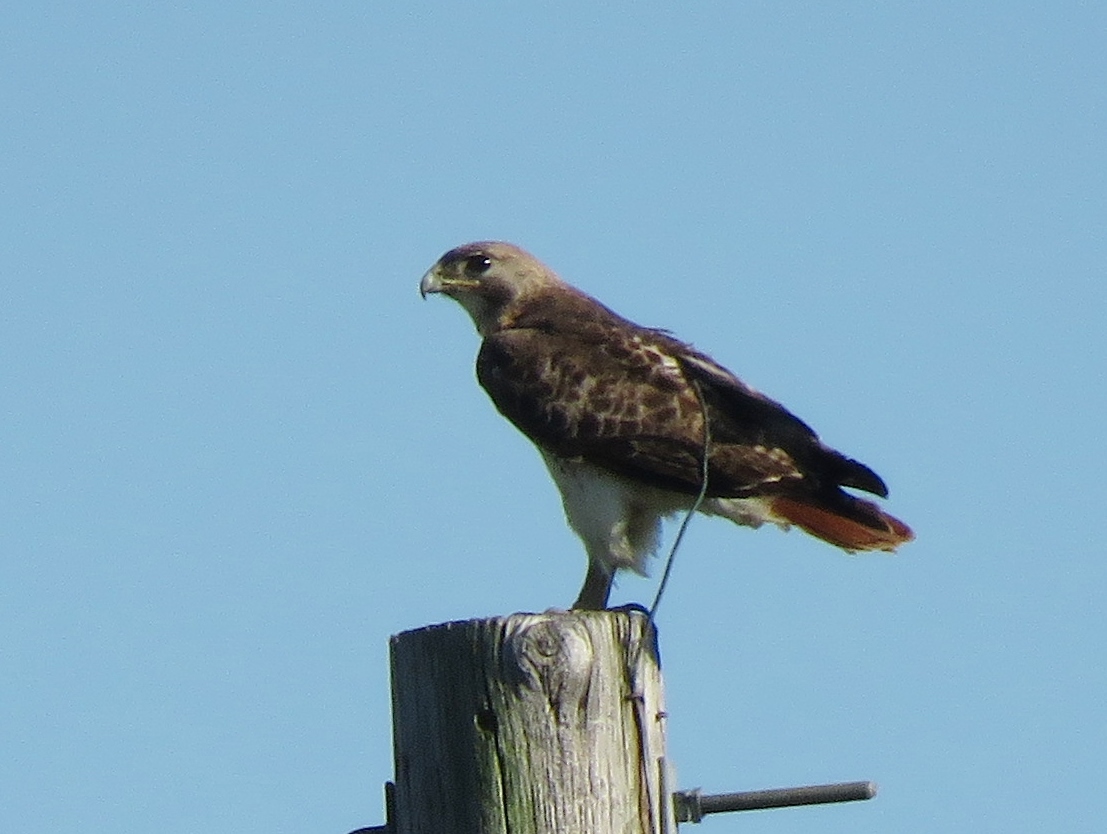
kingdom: Animalia
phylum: Chordata
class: Aves
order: Accipitriformes
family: Accipitridae
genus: Buteo
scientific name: Buteo jamaicensis
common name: Red-tailed hawk
